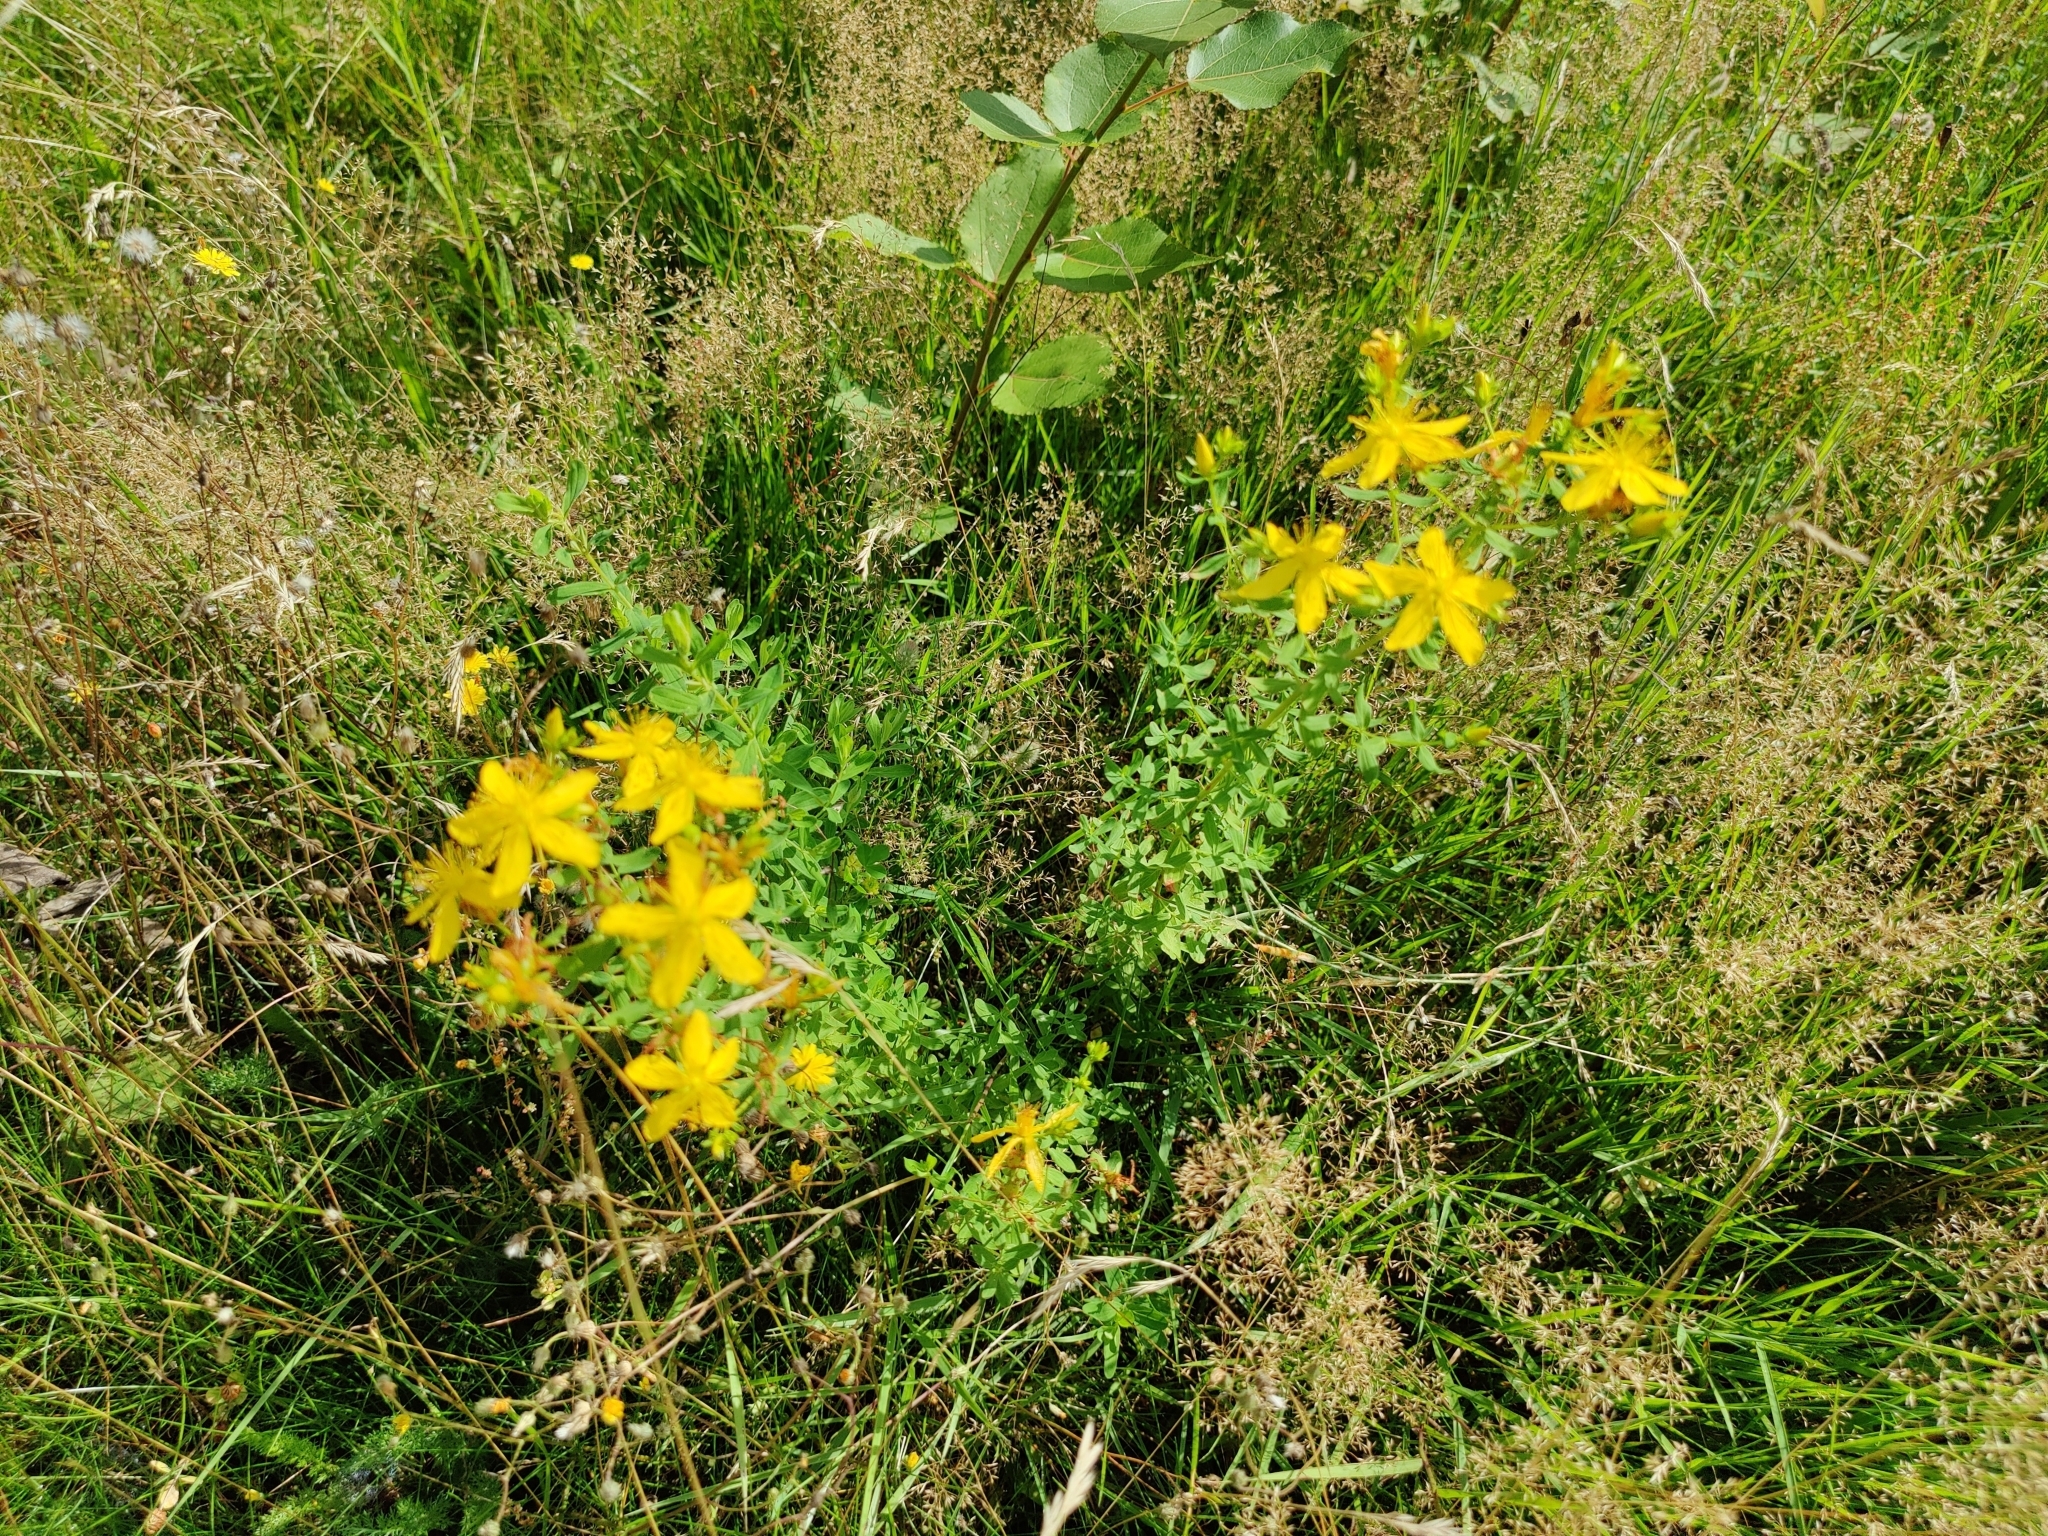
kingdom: Plantae
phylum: Tracheophyta
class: Magnoliopsida
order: Malpighiales
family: Hypericaceae
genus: Hypericum
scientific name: Hypericum perforatum
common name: Common st. johnswort
